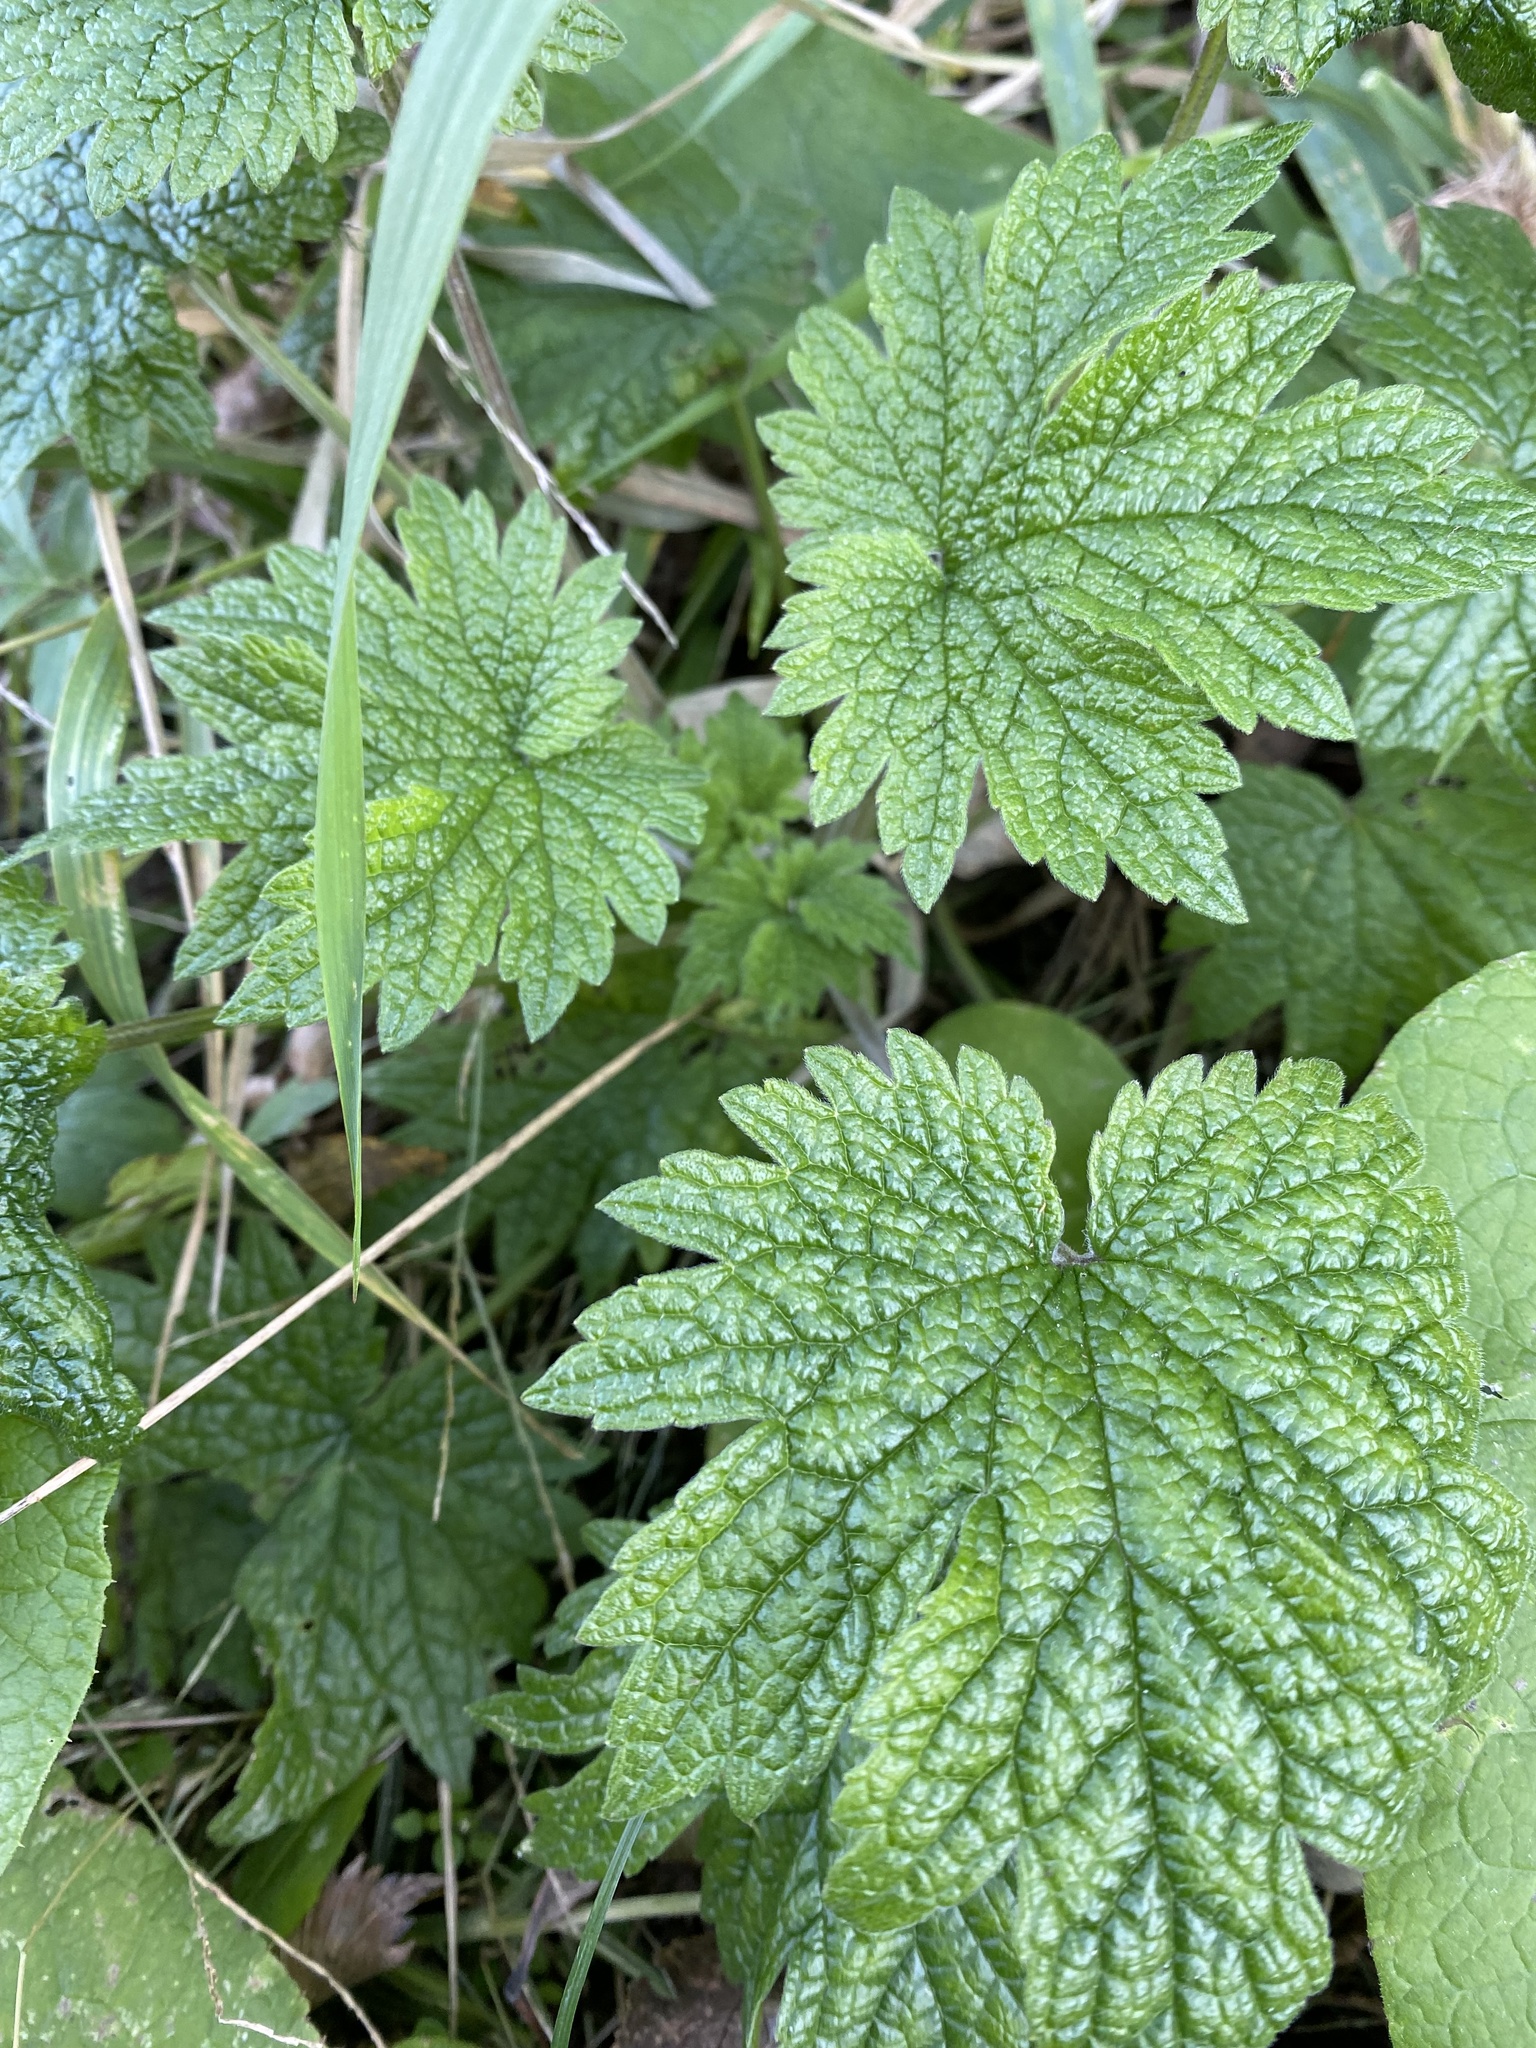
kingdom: Plantae
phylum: Tracheophyta
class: Magnoliopsida
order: Lamiales
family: Lamiaceae
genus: Leonurus
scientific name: Leonurus cardiaca
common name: Motherwort
